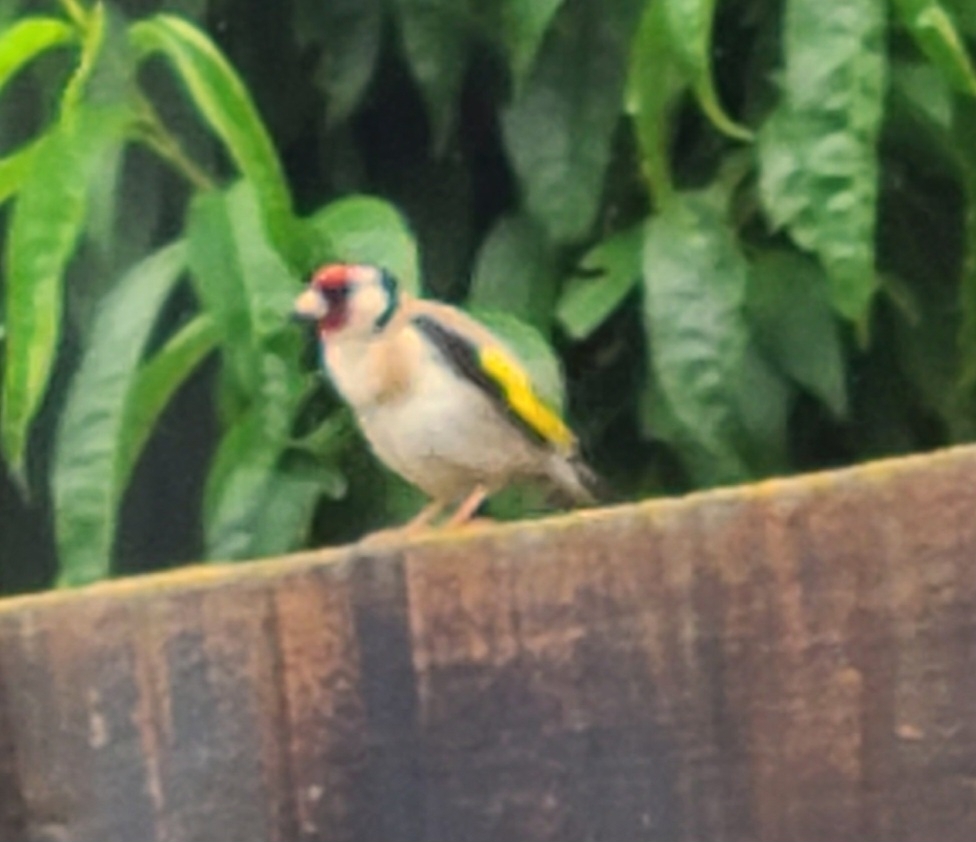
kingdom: Animalia
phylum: Chordata
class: Aves
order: Passeriformes
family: Fringillidae
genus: Carduelis
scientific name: Carduelis carduelis
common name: European goldfinch
